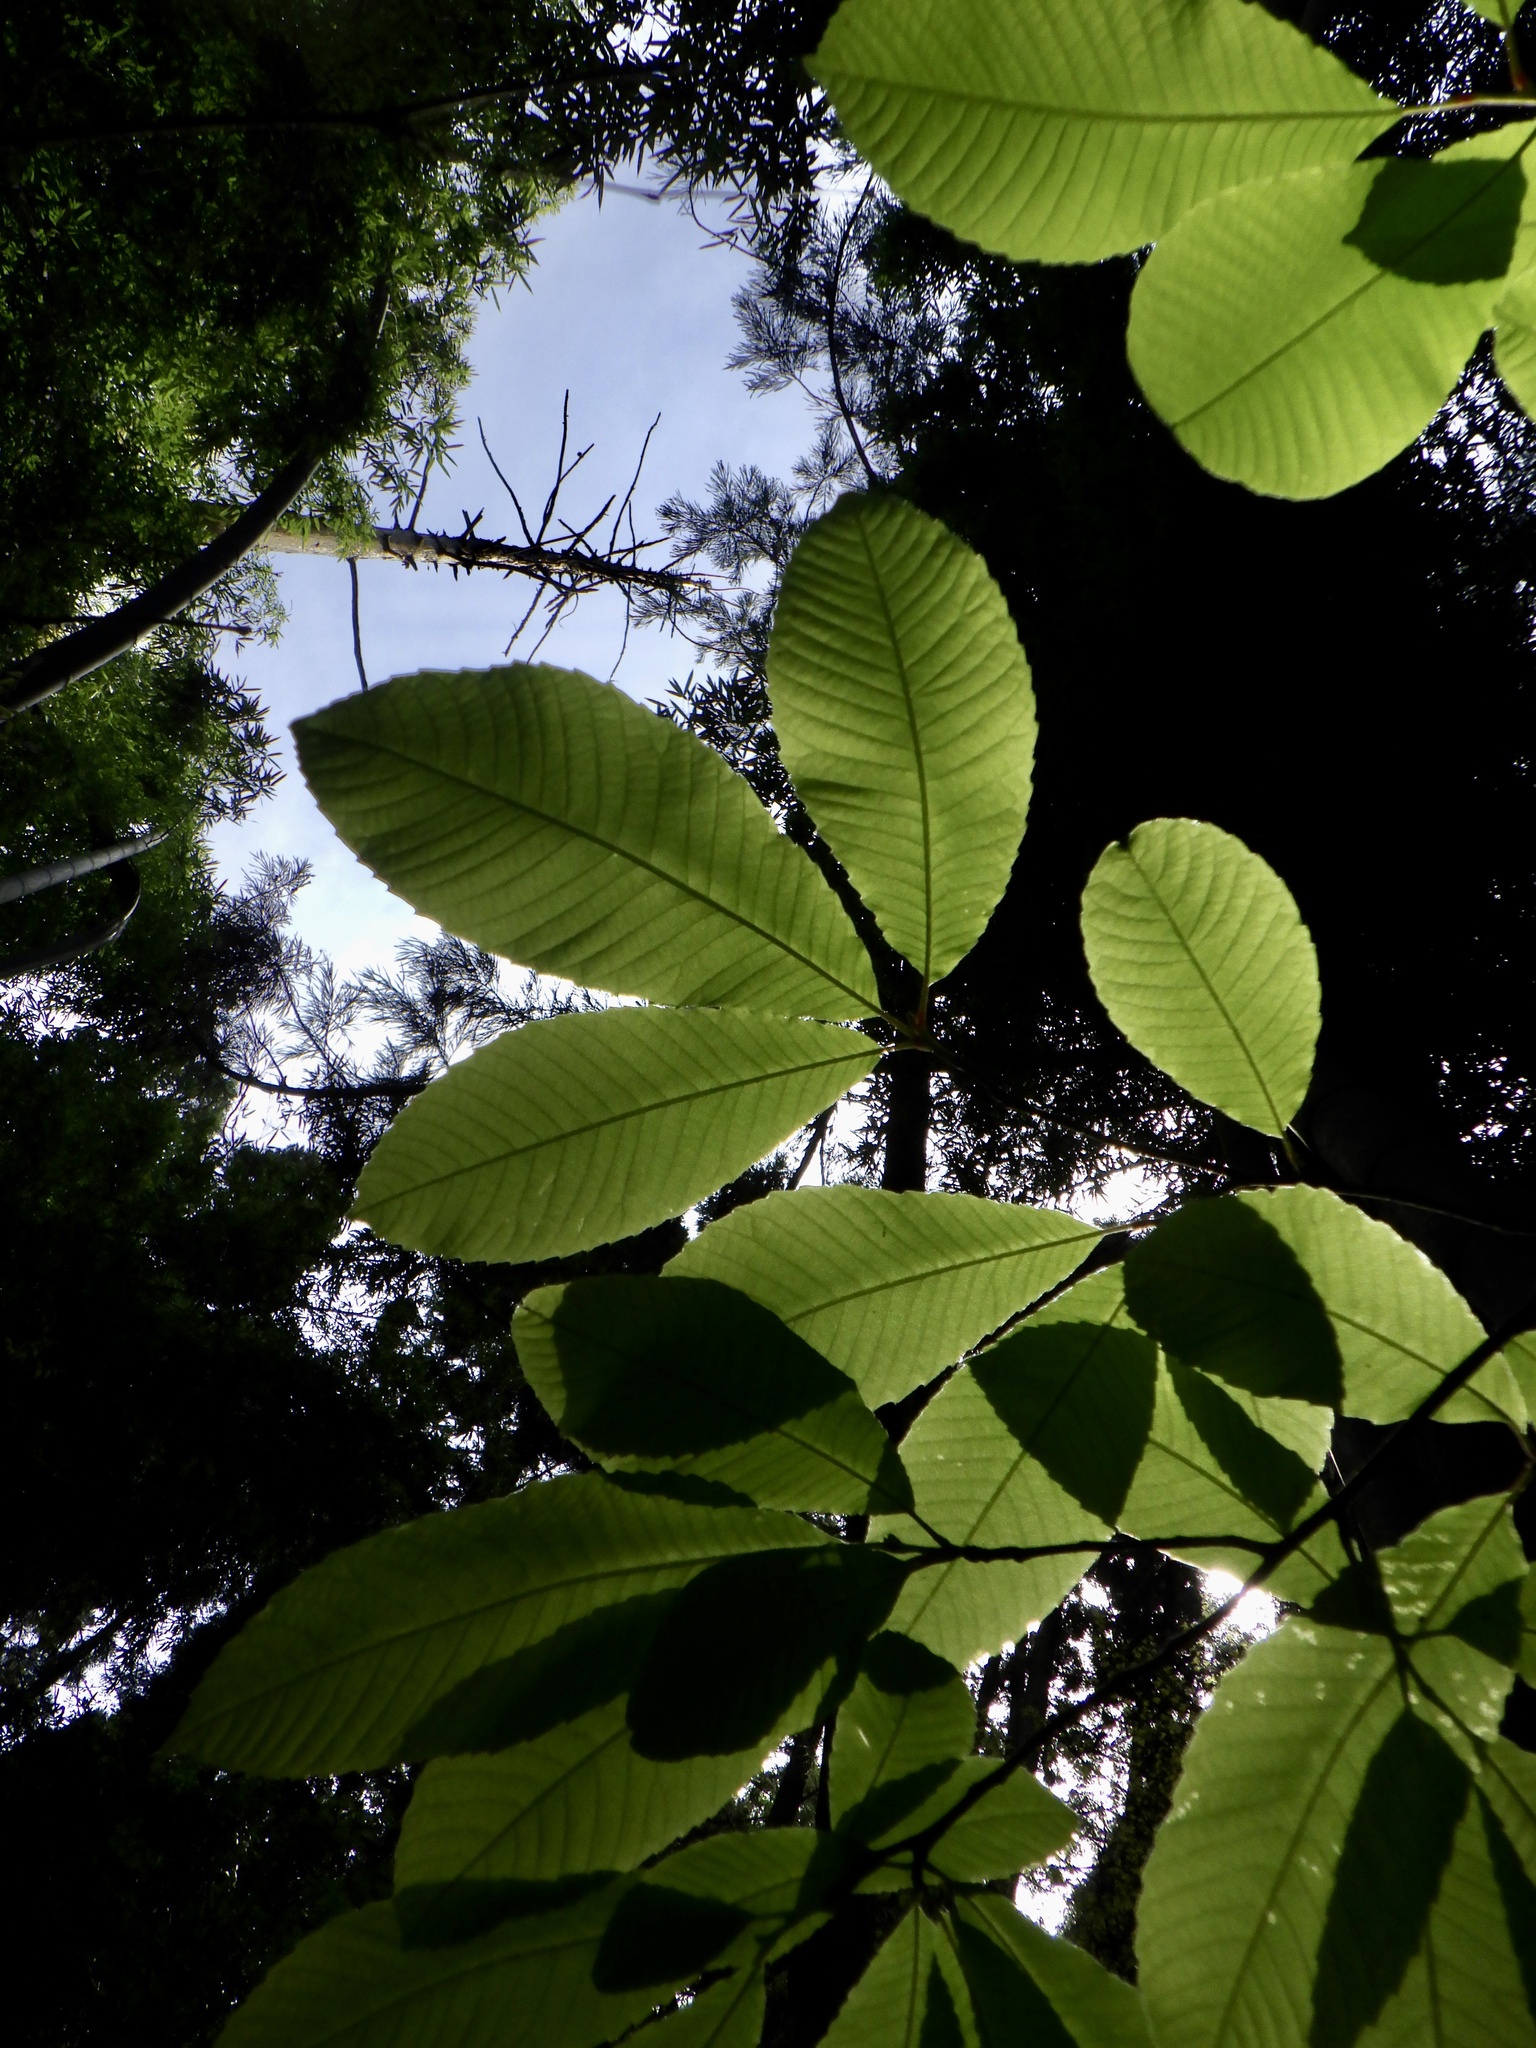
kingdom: Plantae
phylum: Tracheophyta
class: Magnoliopsida
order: Proteales
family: Sabiaceae
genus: Meliosma
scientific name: Meliosma myriantha
